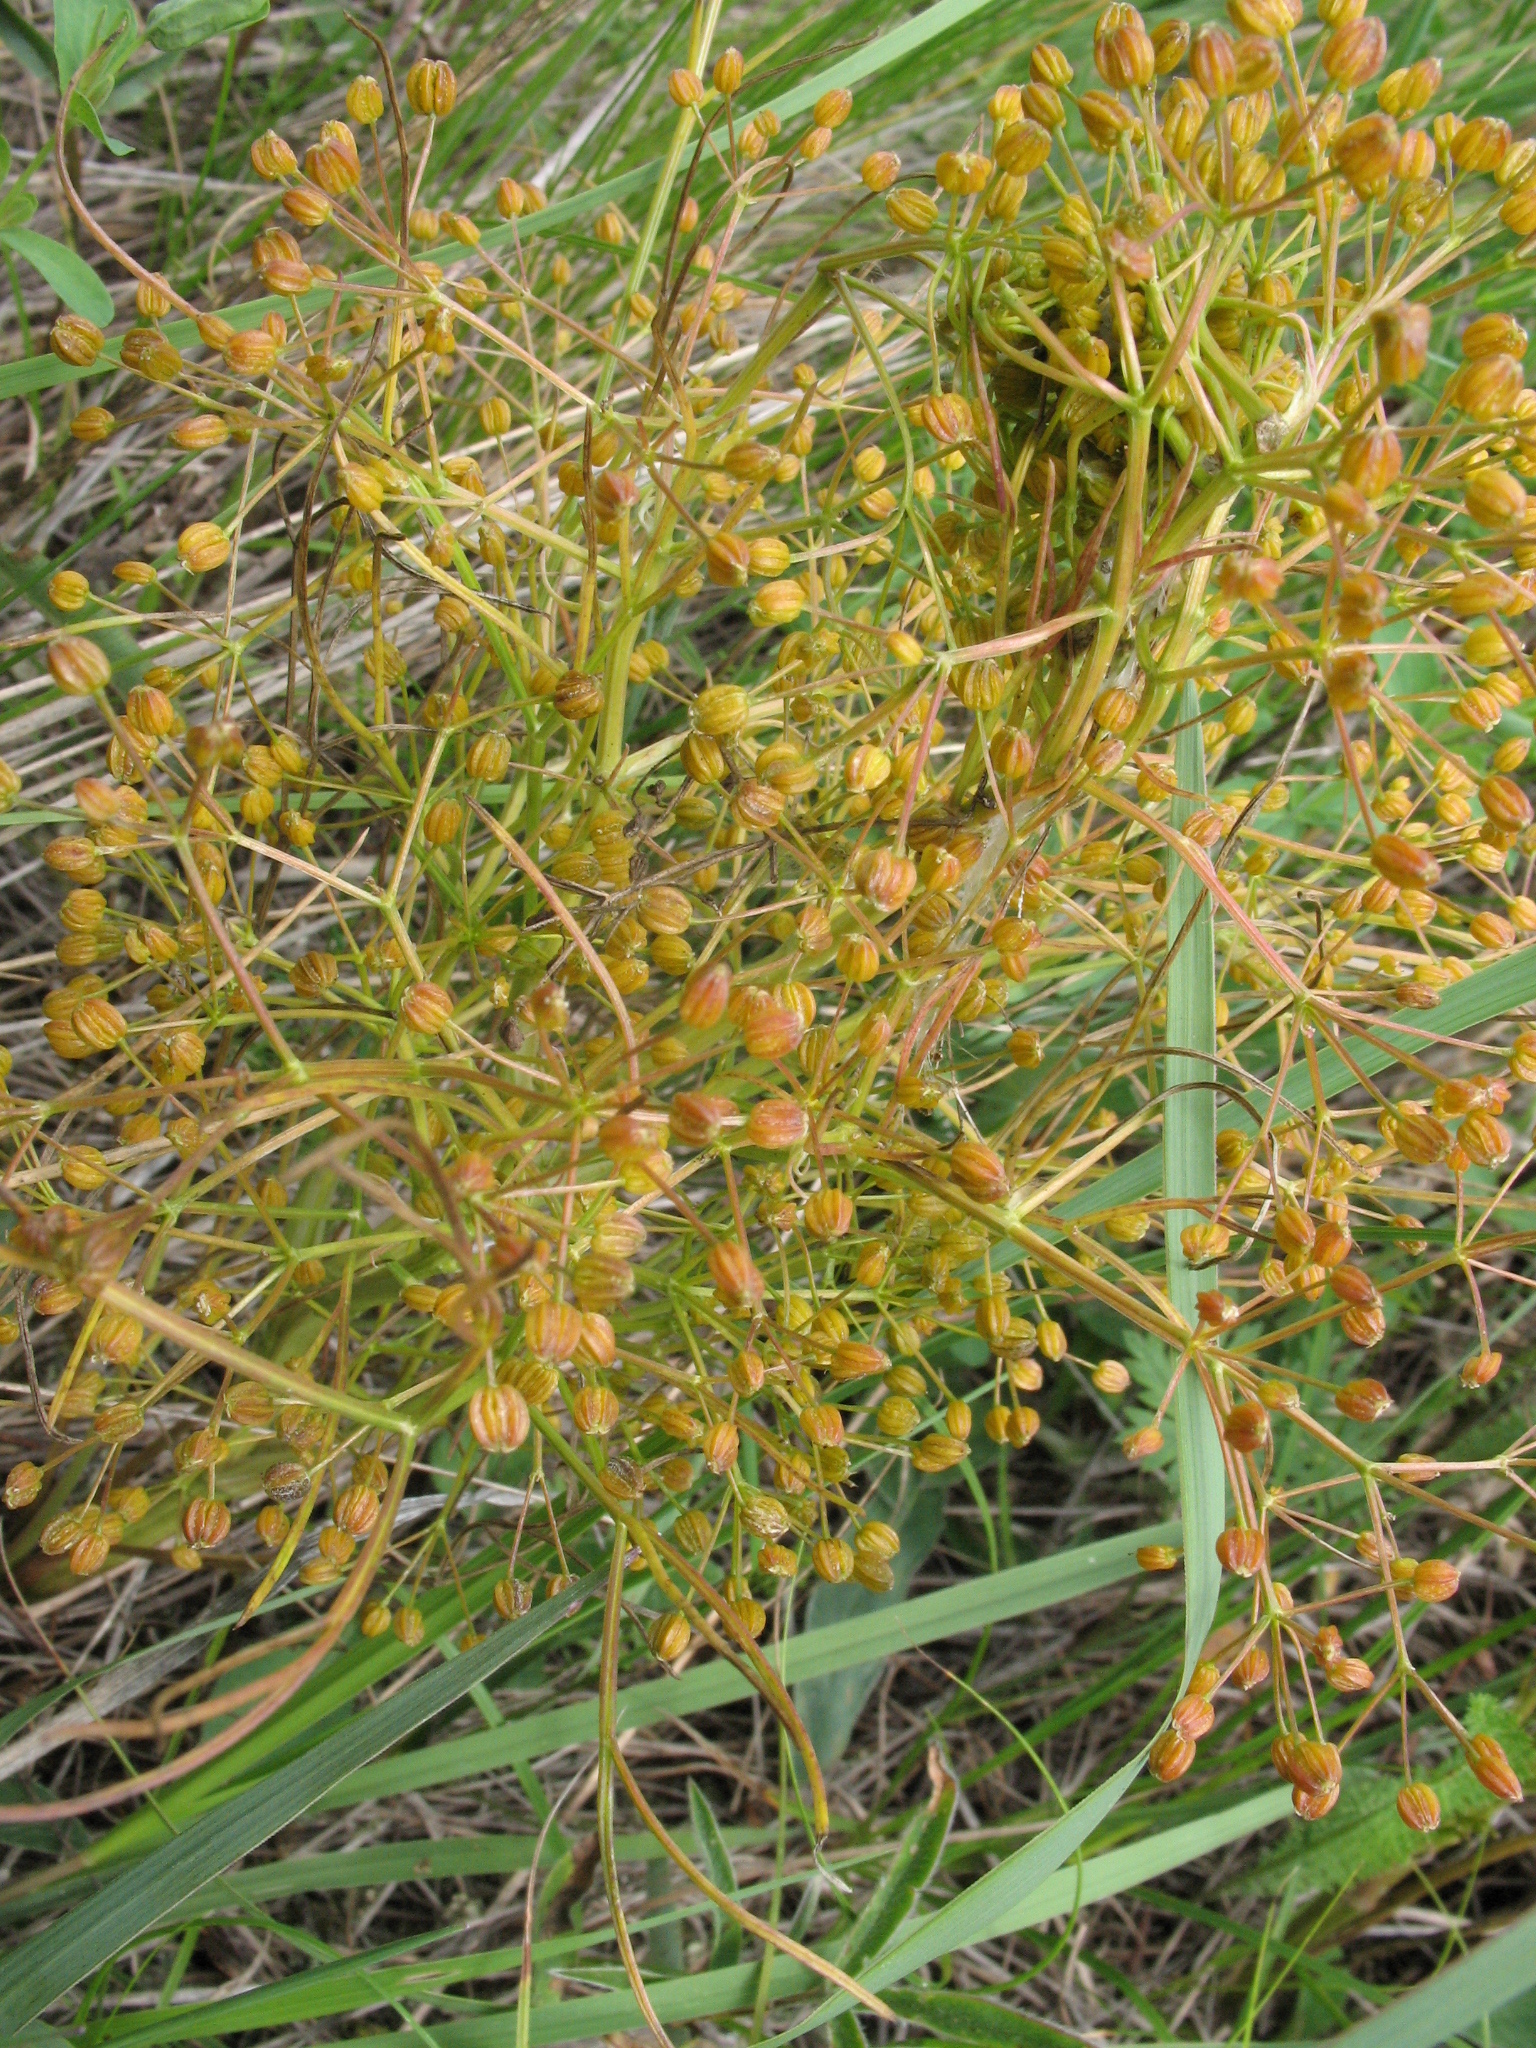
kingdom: Plantae
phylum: Tracheophyta
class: Magnoliopsida
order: Apiales
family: Apiaceae
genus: Trinia
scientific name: Trinia multicaulis
